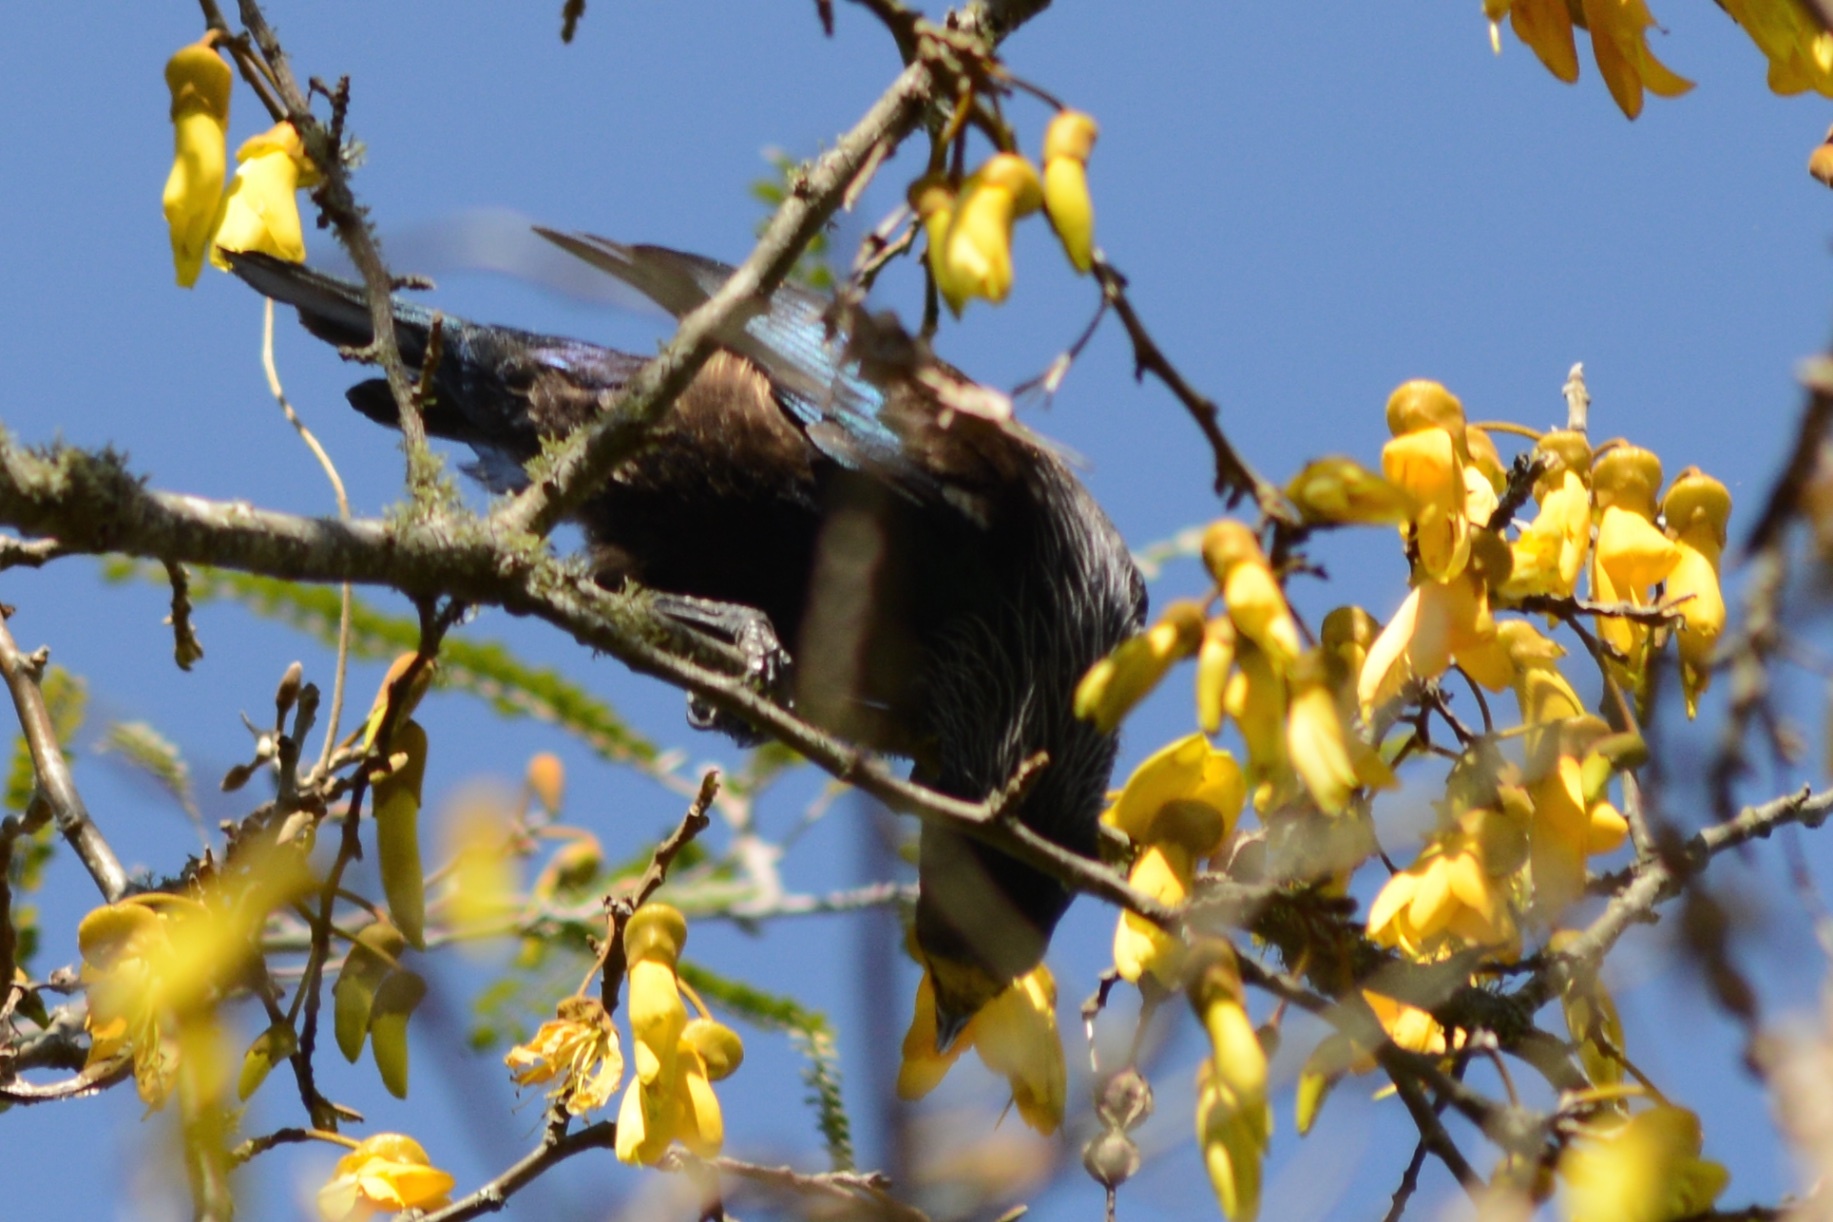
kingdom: Animalia
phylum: Chordata
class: Aves
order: Passeriformes
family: Meliphagidae
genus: Prosthemadera
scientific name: Prosthemadera novaeseelandiae
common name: Tui
